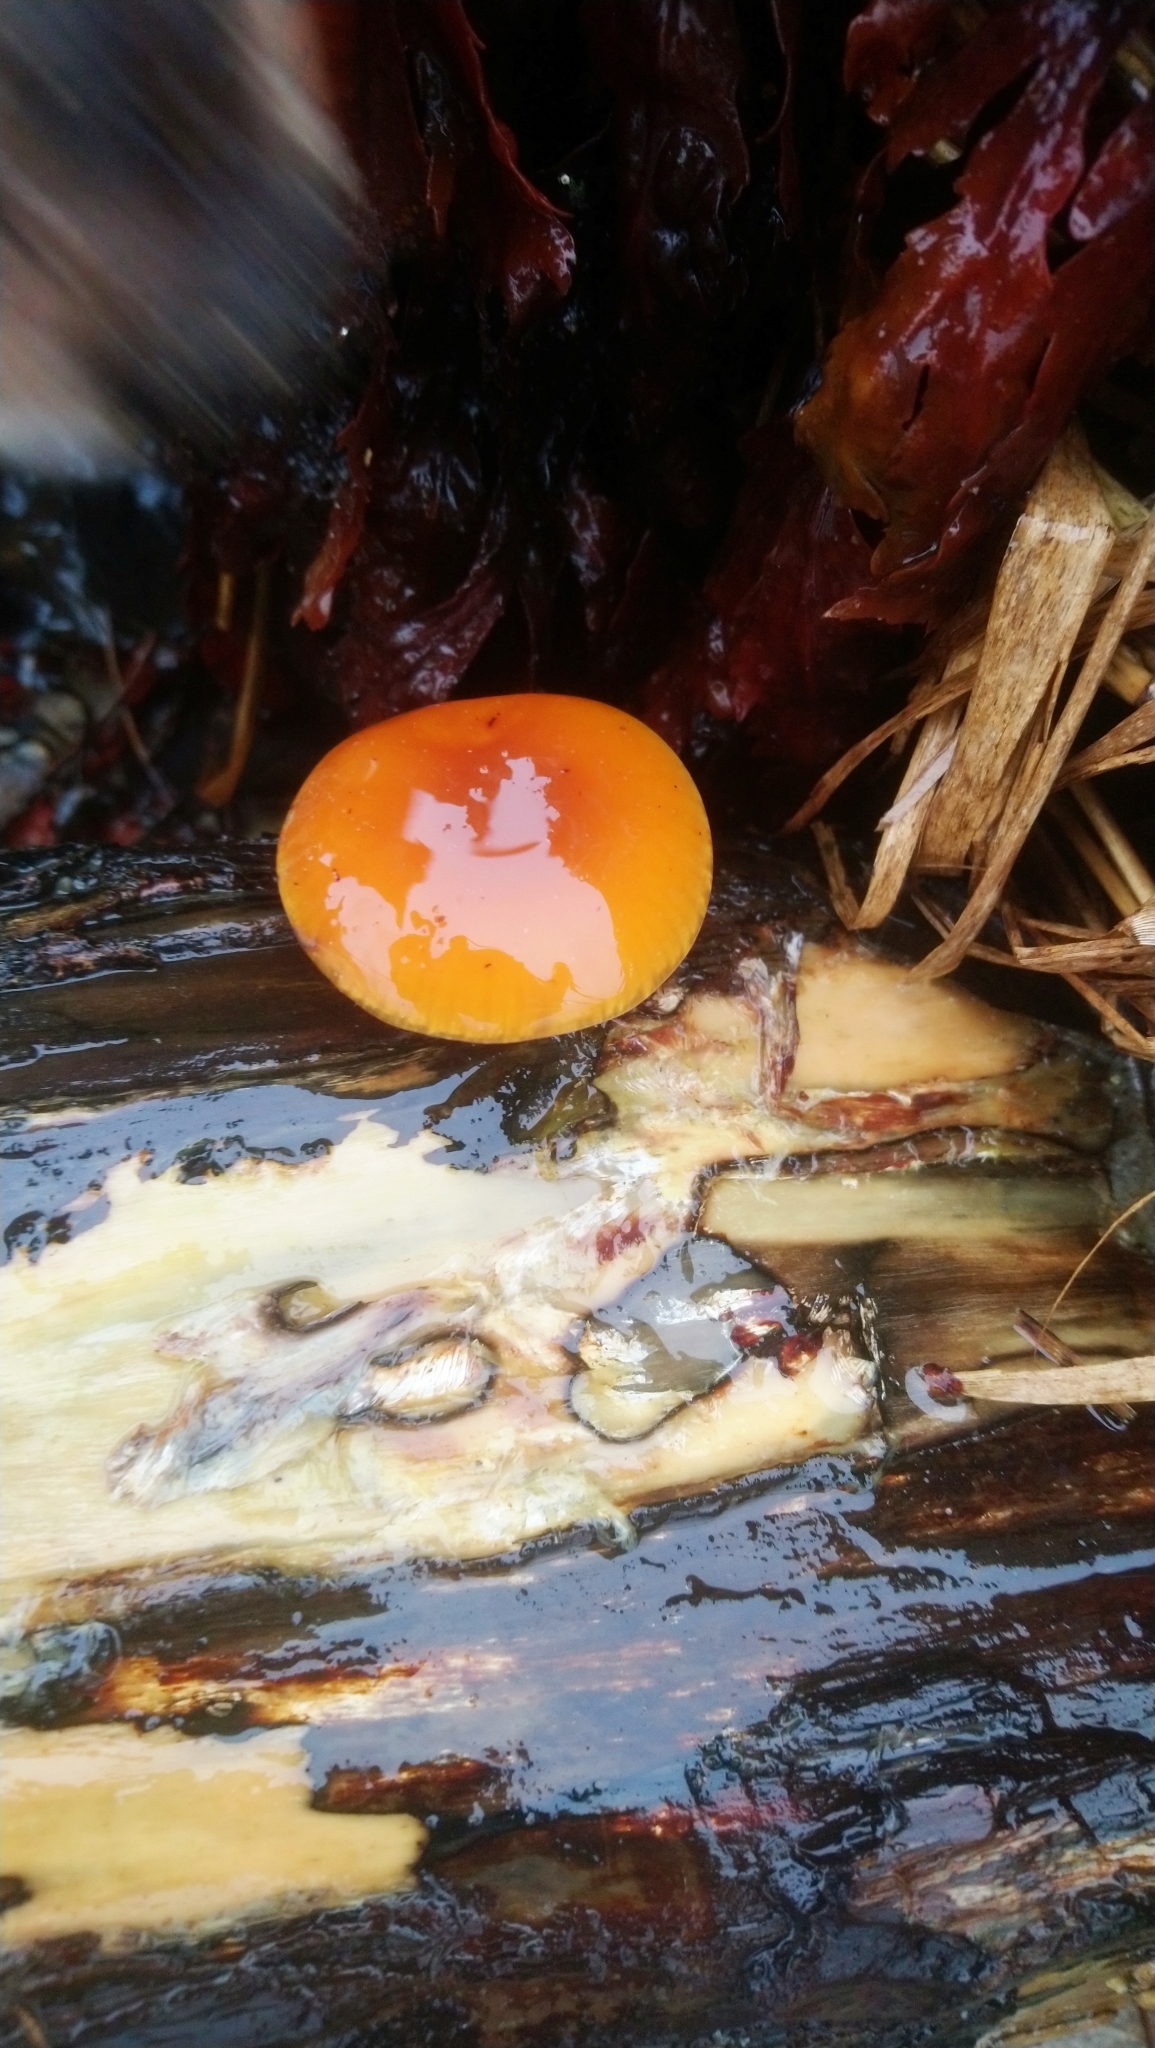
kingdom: Fungi
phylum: Basidiomycota
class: Agaricomycetes
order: Agaricales
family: Physalacriaceae
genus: Flammulina
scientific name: Flammulina
